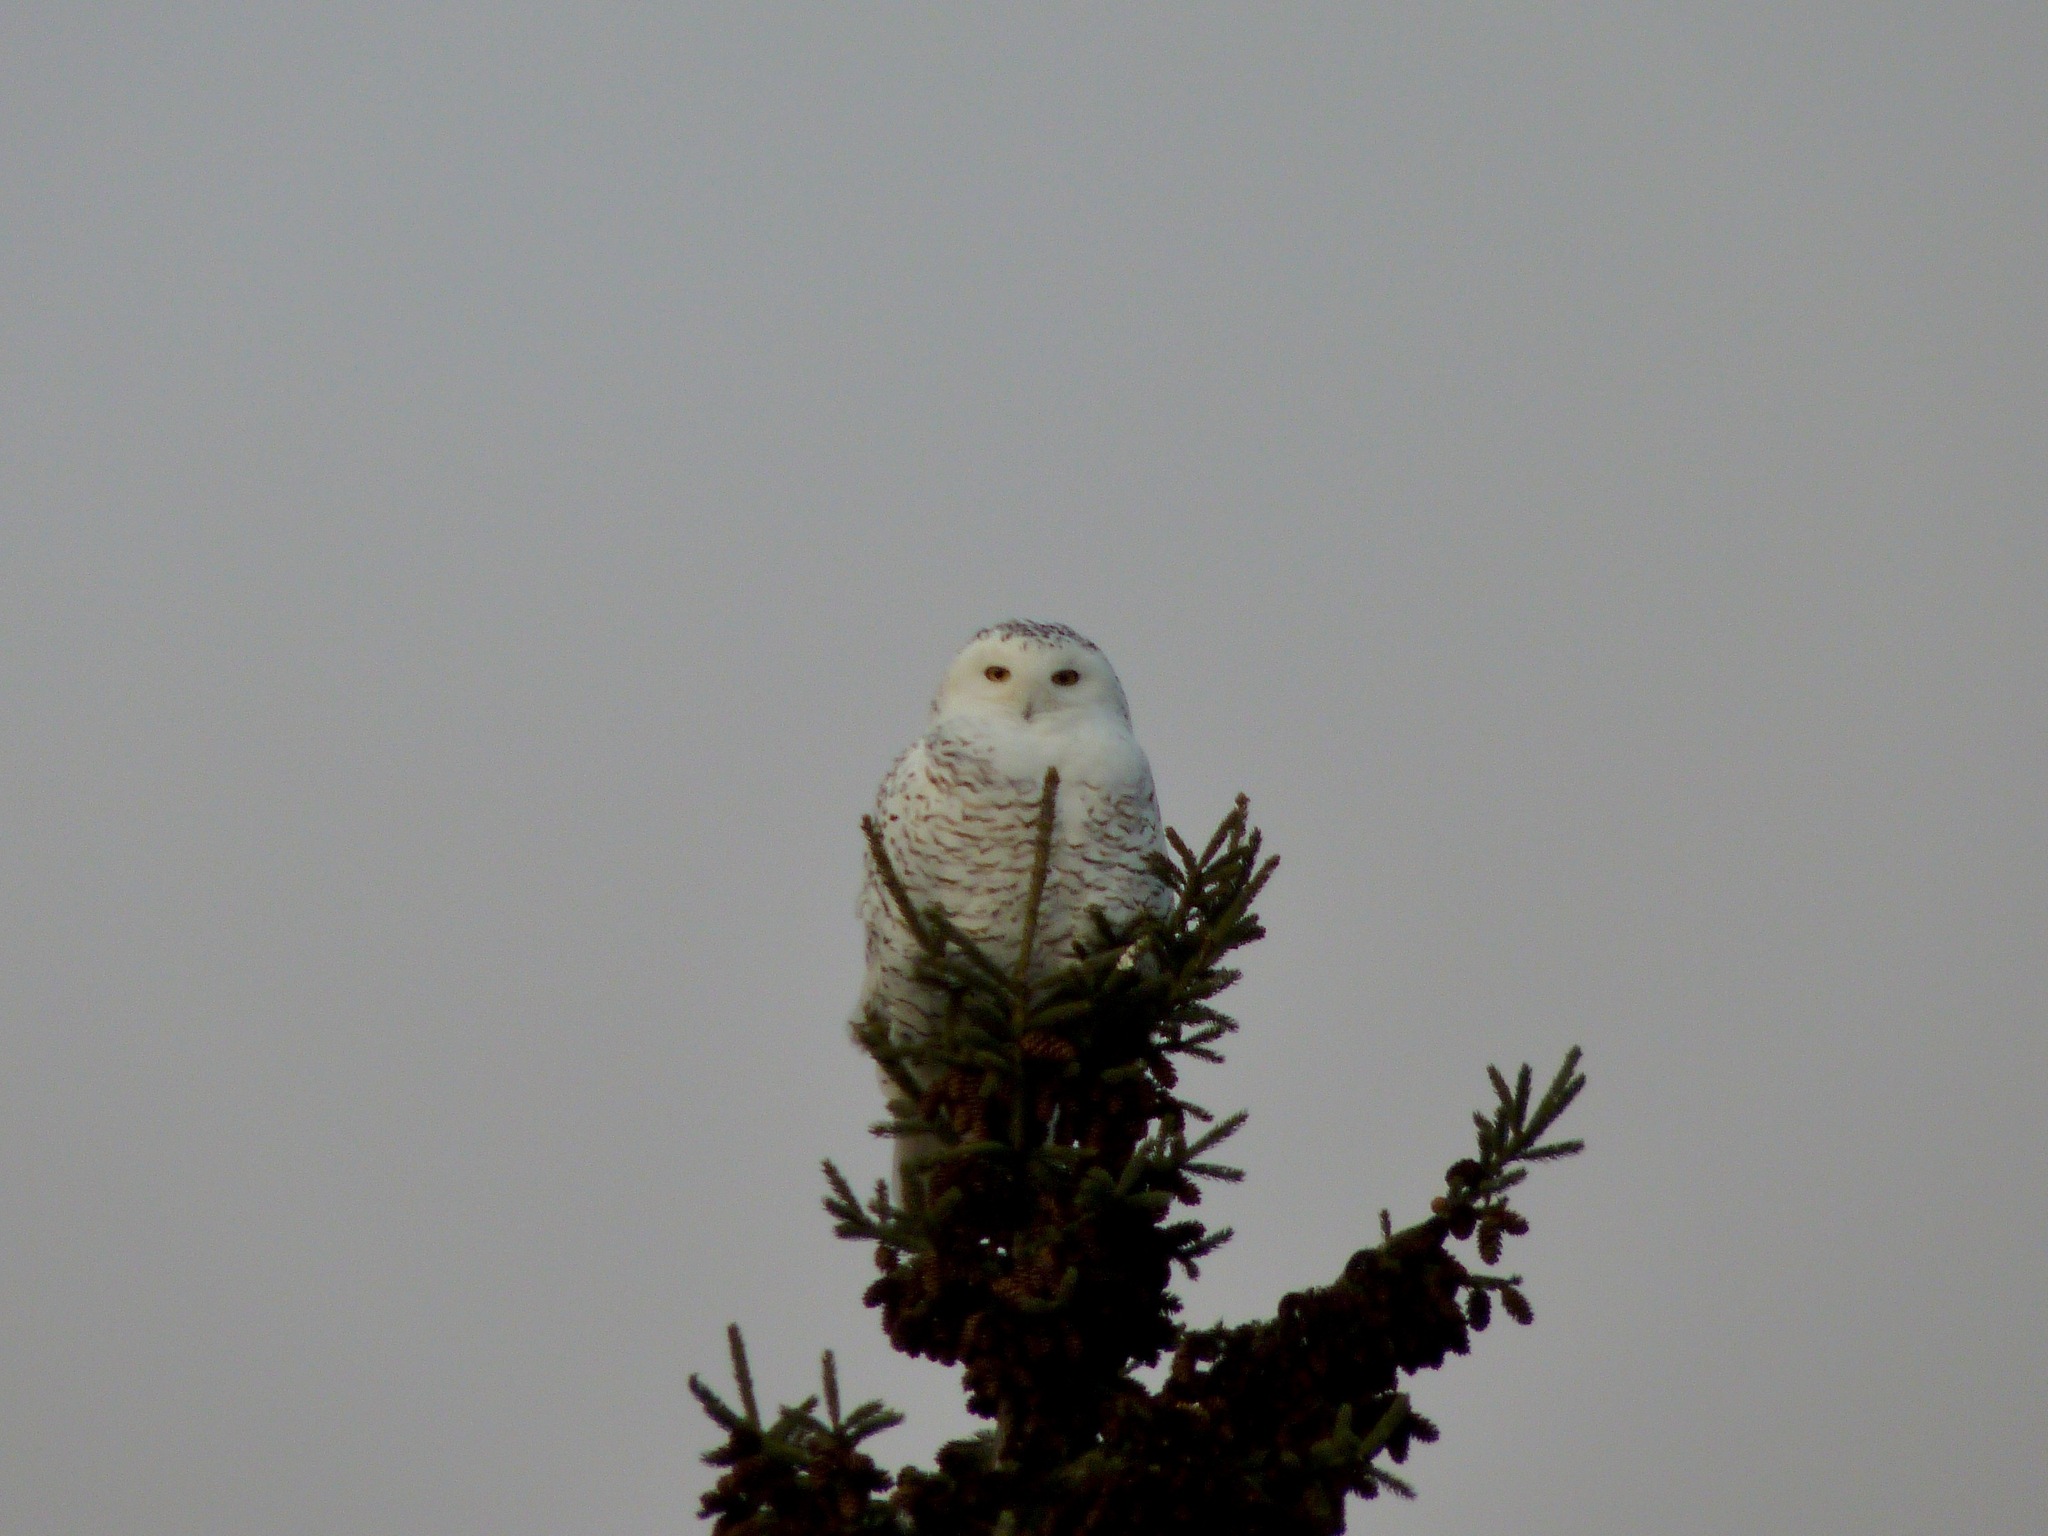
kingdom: Animalia
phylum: Chordata
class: Aves
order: Strigiformes
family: Strigidae
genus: Bubo
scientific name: Bubo scandiacus
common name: Snowy owl
